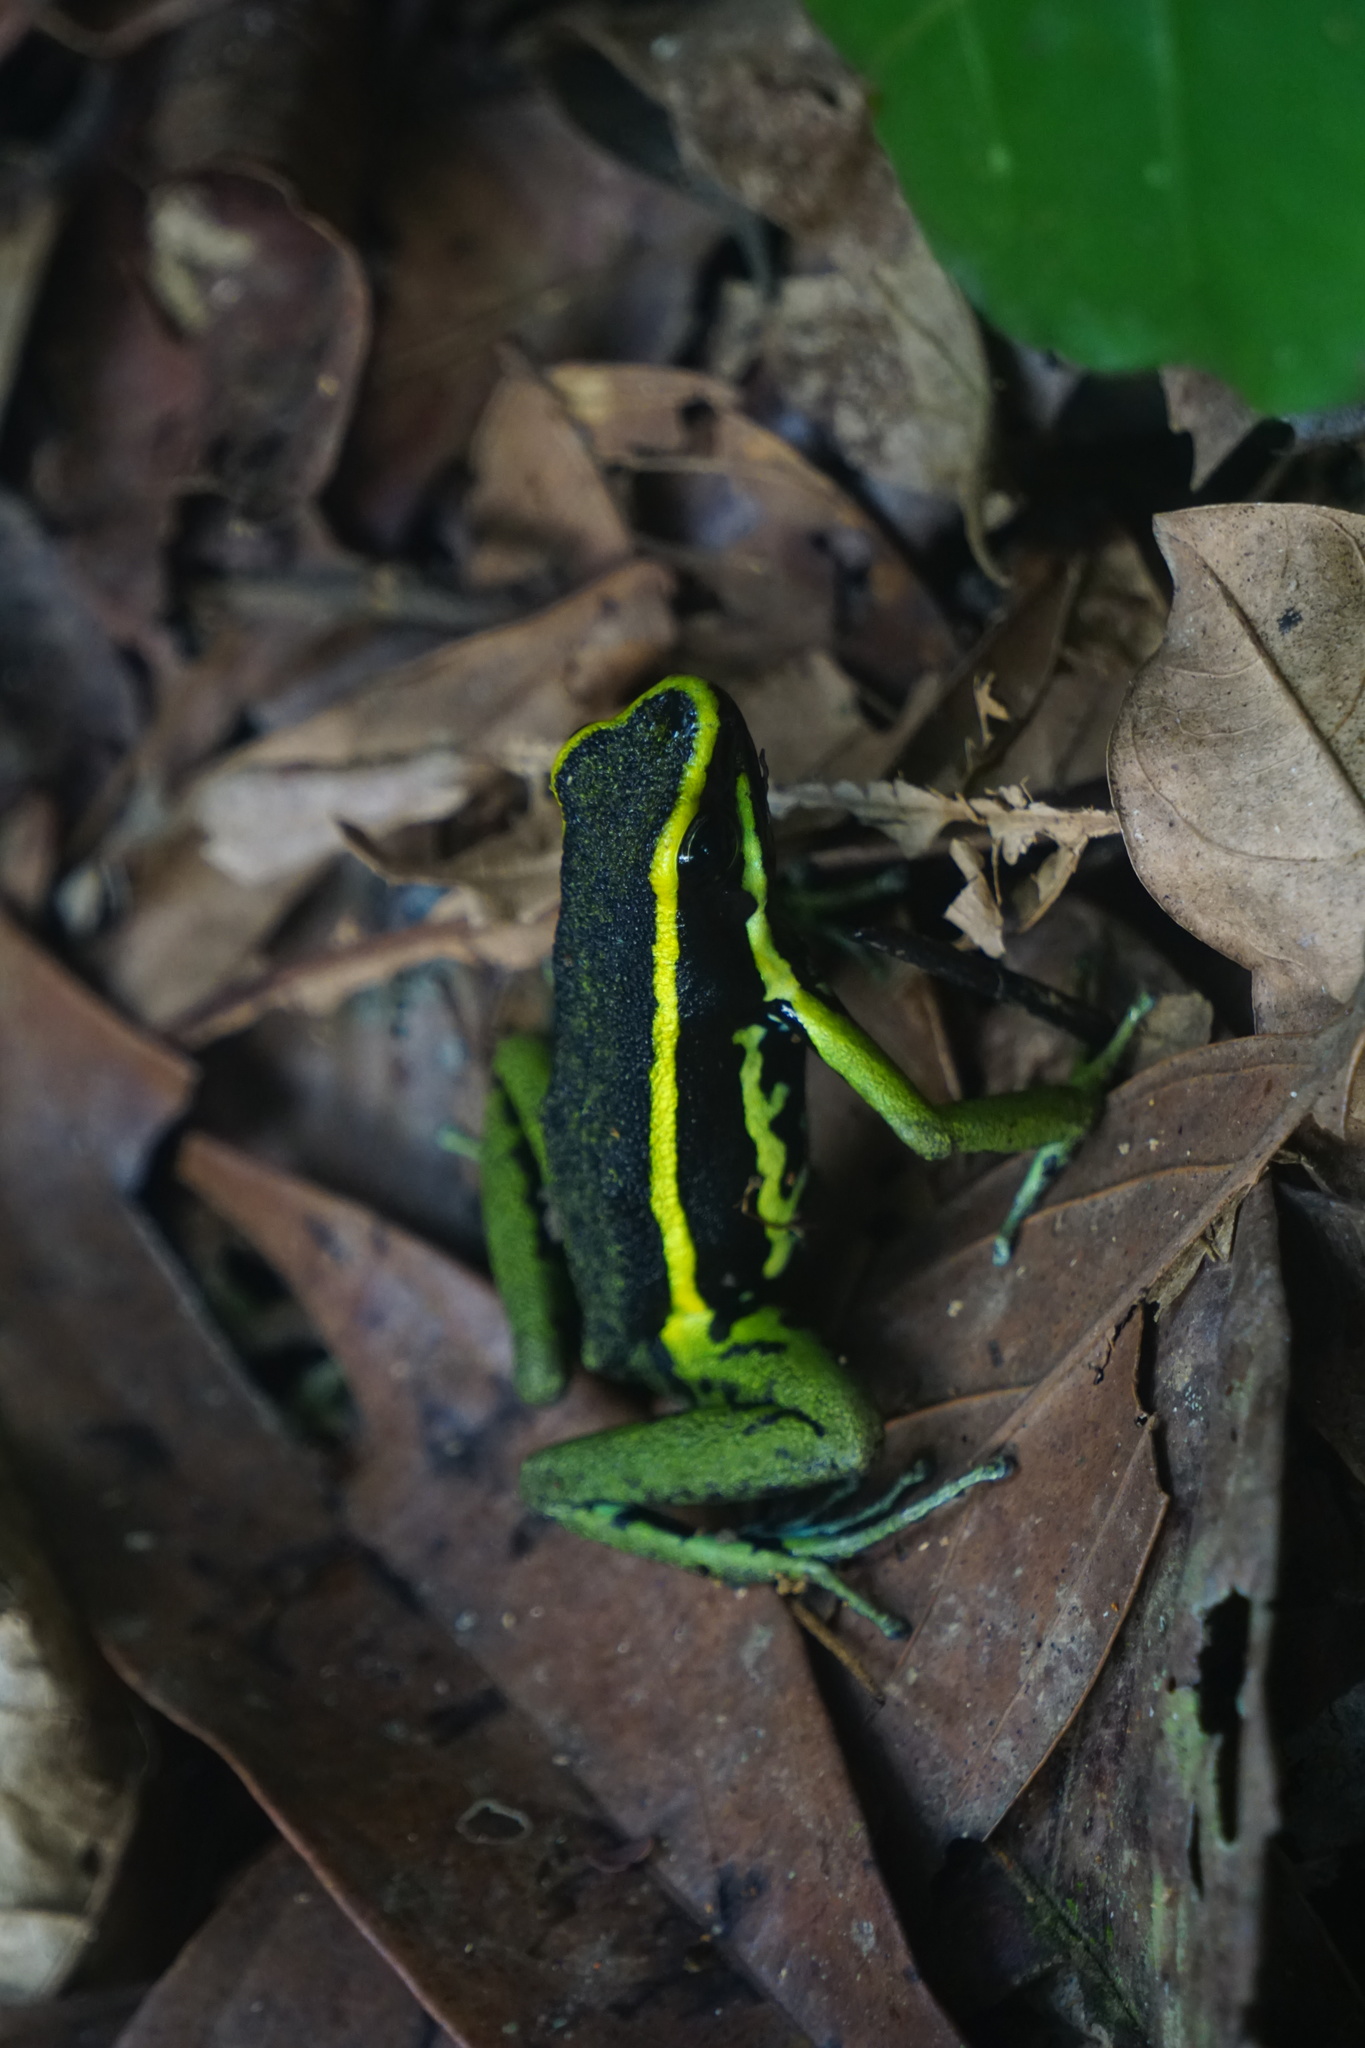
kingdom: Animalia
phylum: Chordata
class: Amphibia
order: Anura
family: Dendrobatidae
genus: Ameerega
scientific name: Ameerega trivittata
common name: Three-striped arrow-poison frog
